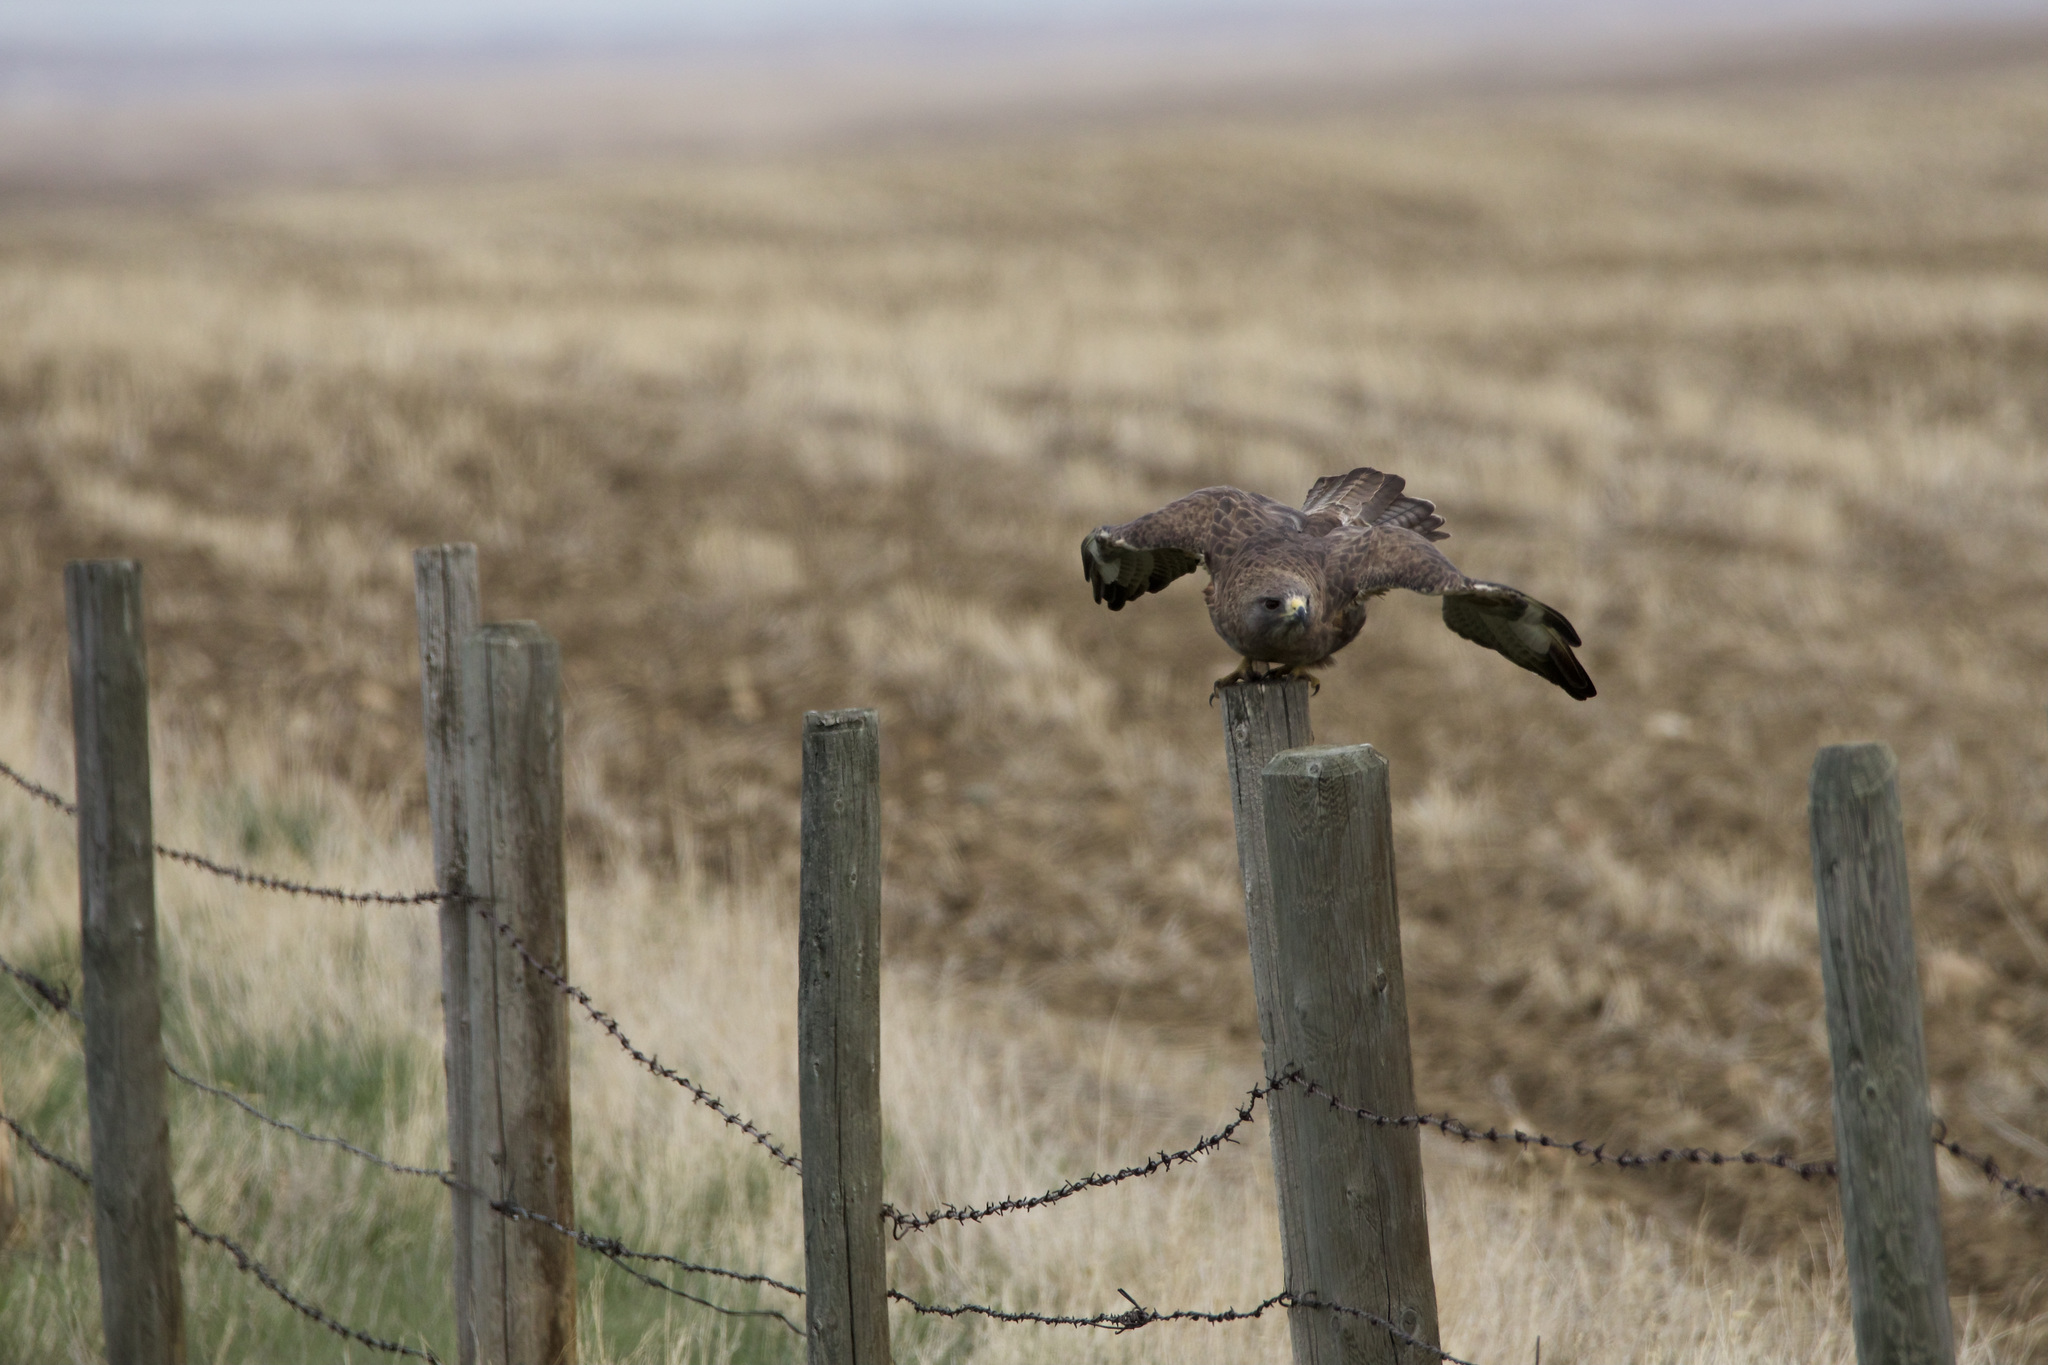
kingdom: Animalia
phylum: Chordata
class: Aves
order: Accipitriformes
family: Accipitridae
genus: Buteo
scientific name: Buteo swainsoni
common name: Swainson's hawk
